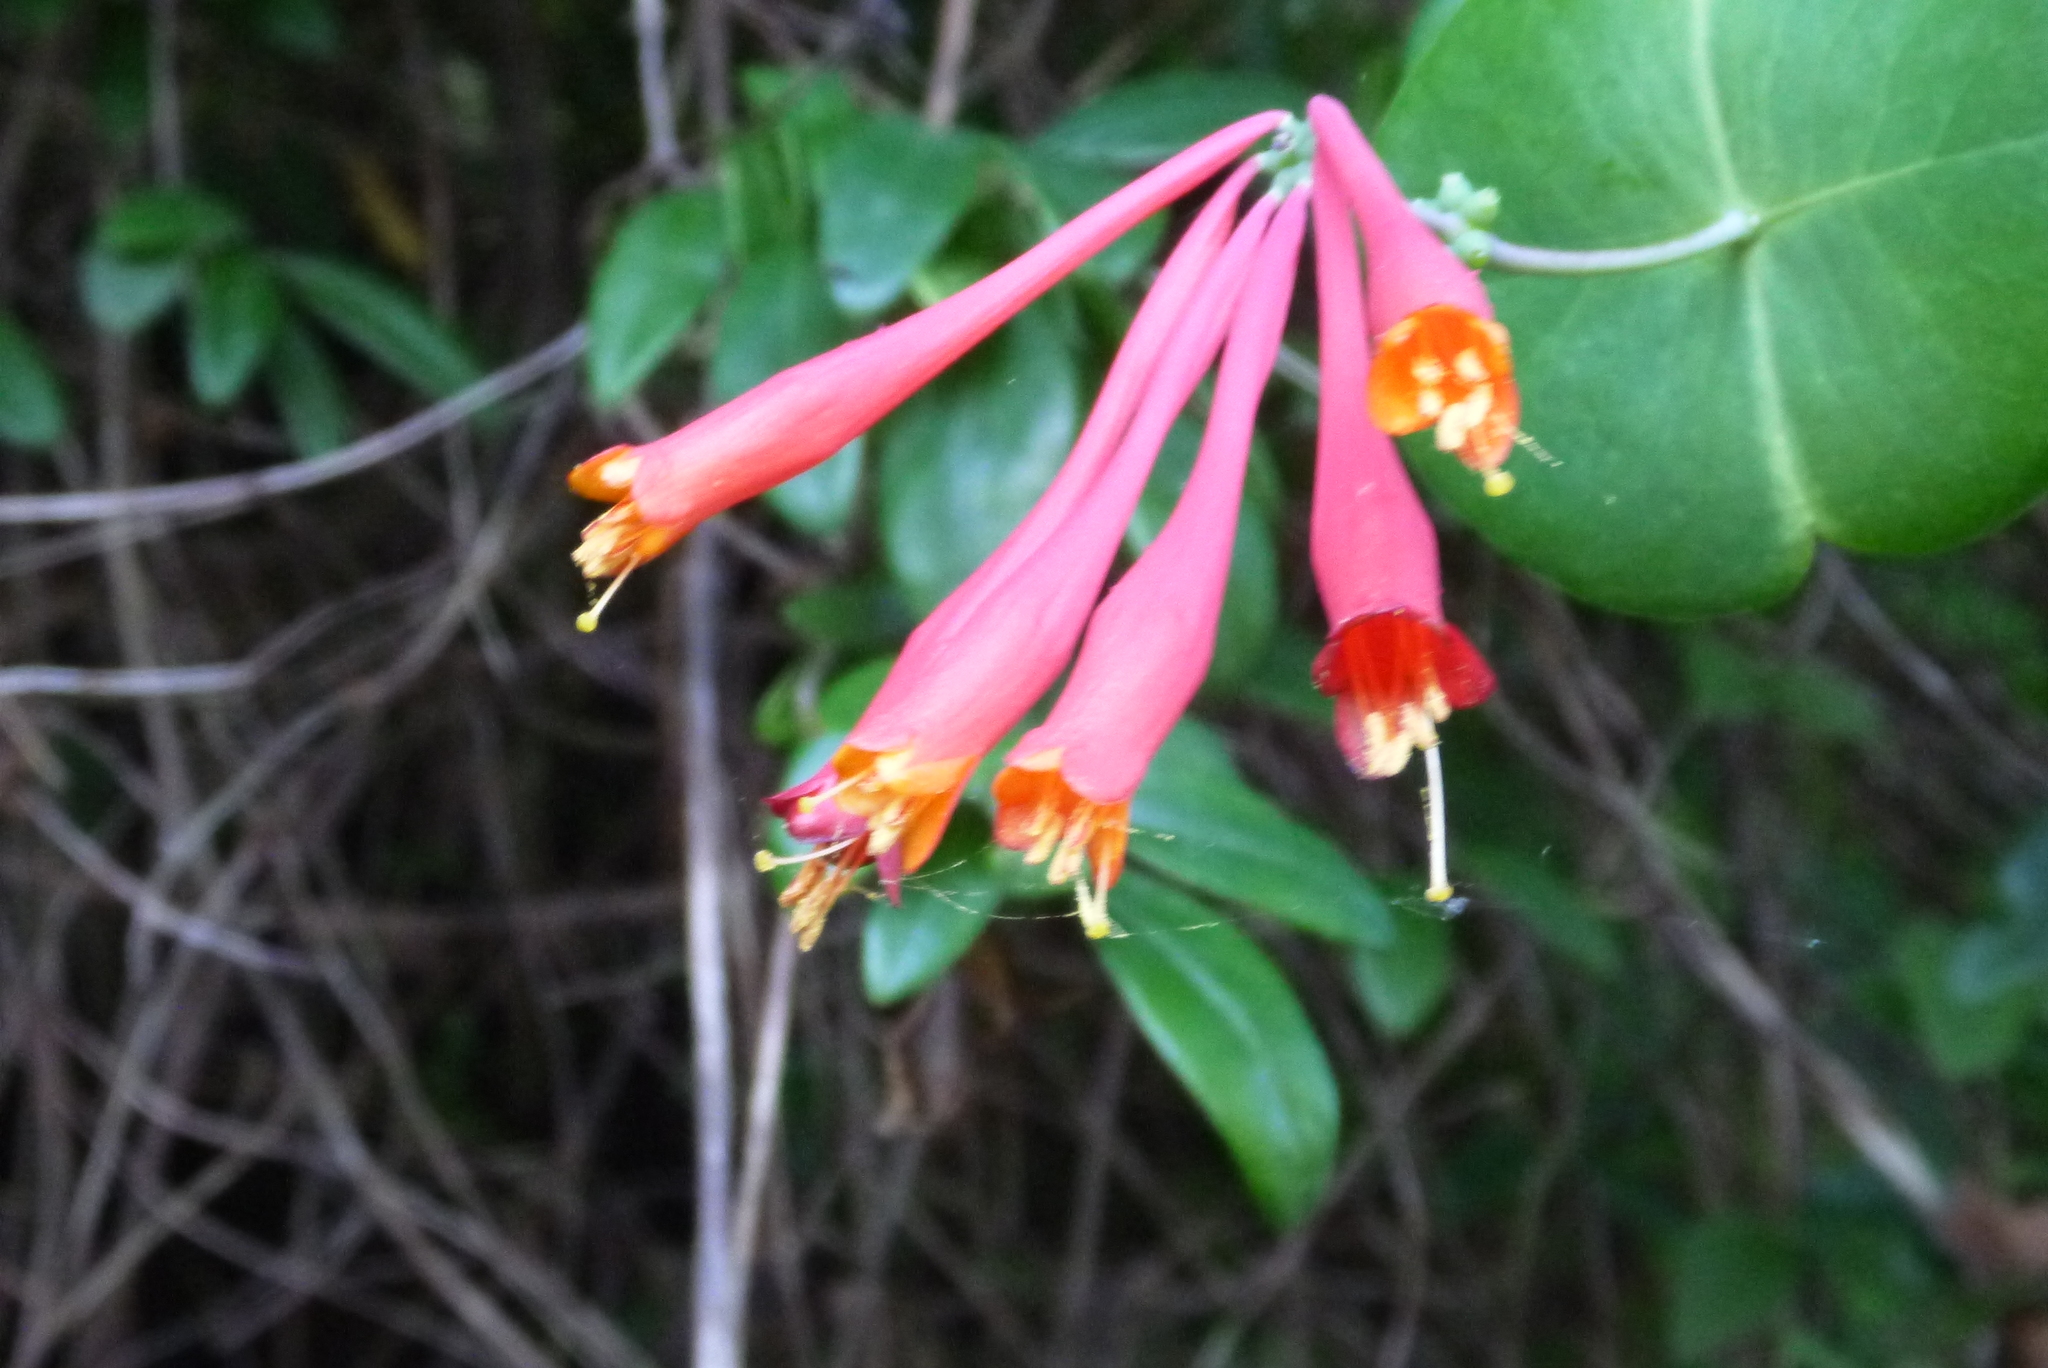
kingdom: Plantae
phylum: Tracheophyta
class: Magnoliopsida
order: Dipsacales
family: Caprifoliaceae
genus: Lonicera
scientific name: Lonicera sempervirens
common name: Coral honeysuckle
